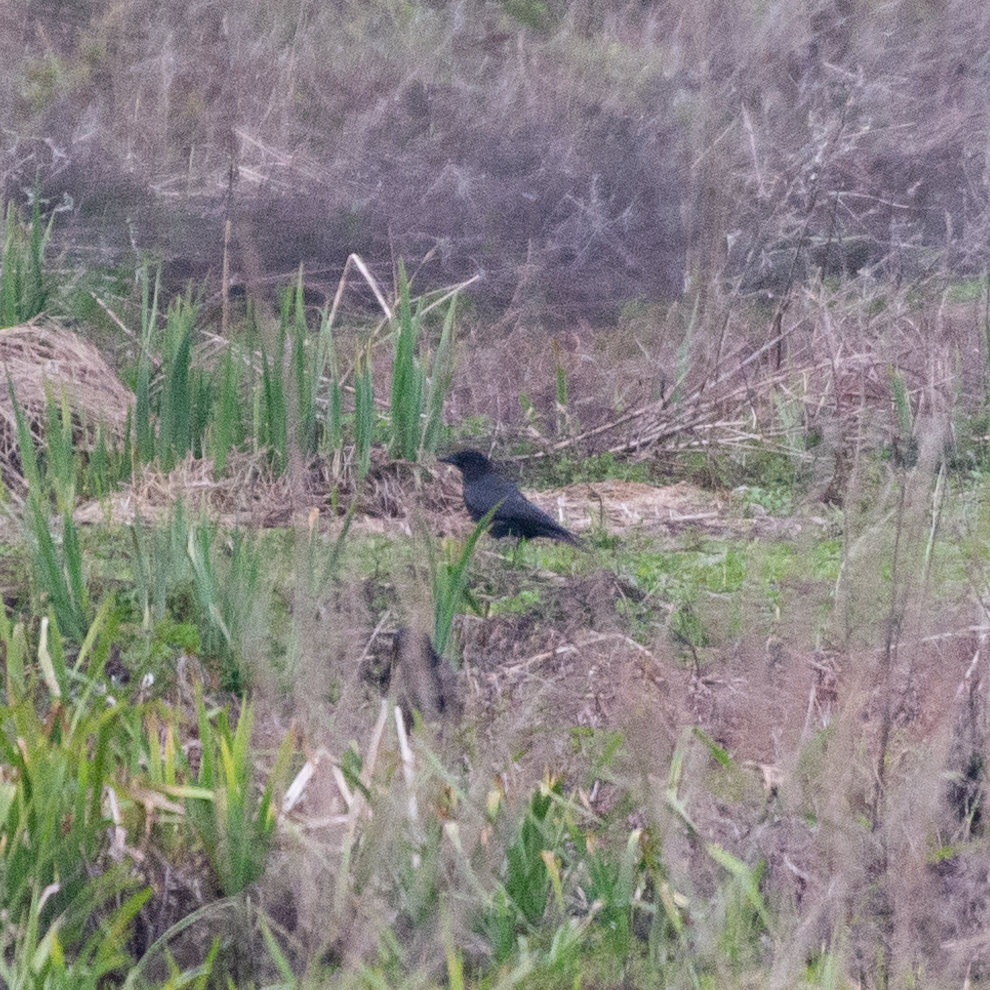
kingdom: Animalia
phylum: Chordata
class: Aves
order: Passeriformes
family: Corvidae
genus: Corvus
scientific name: Corvus corone
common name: Carrion crow
